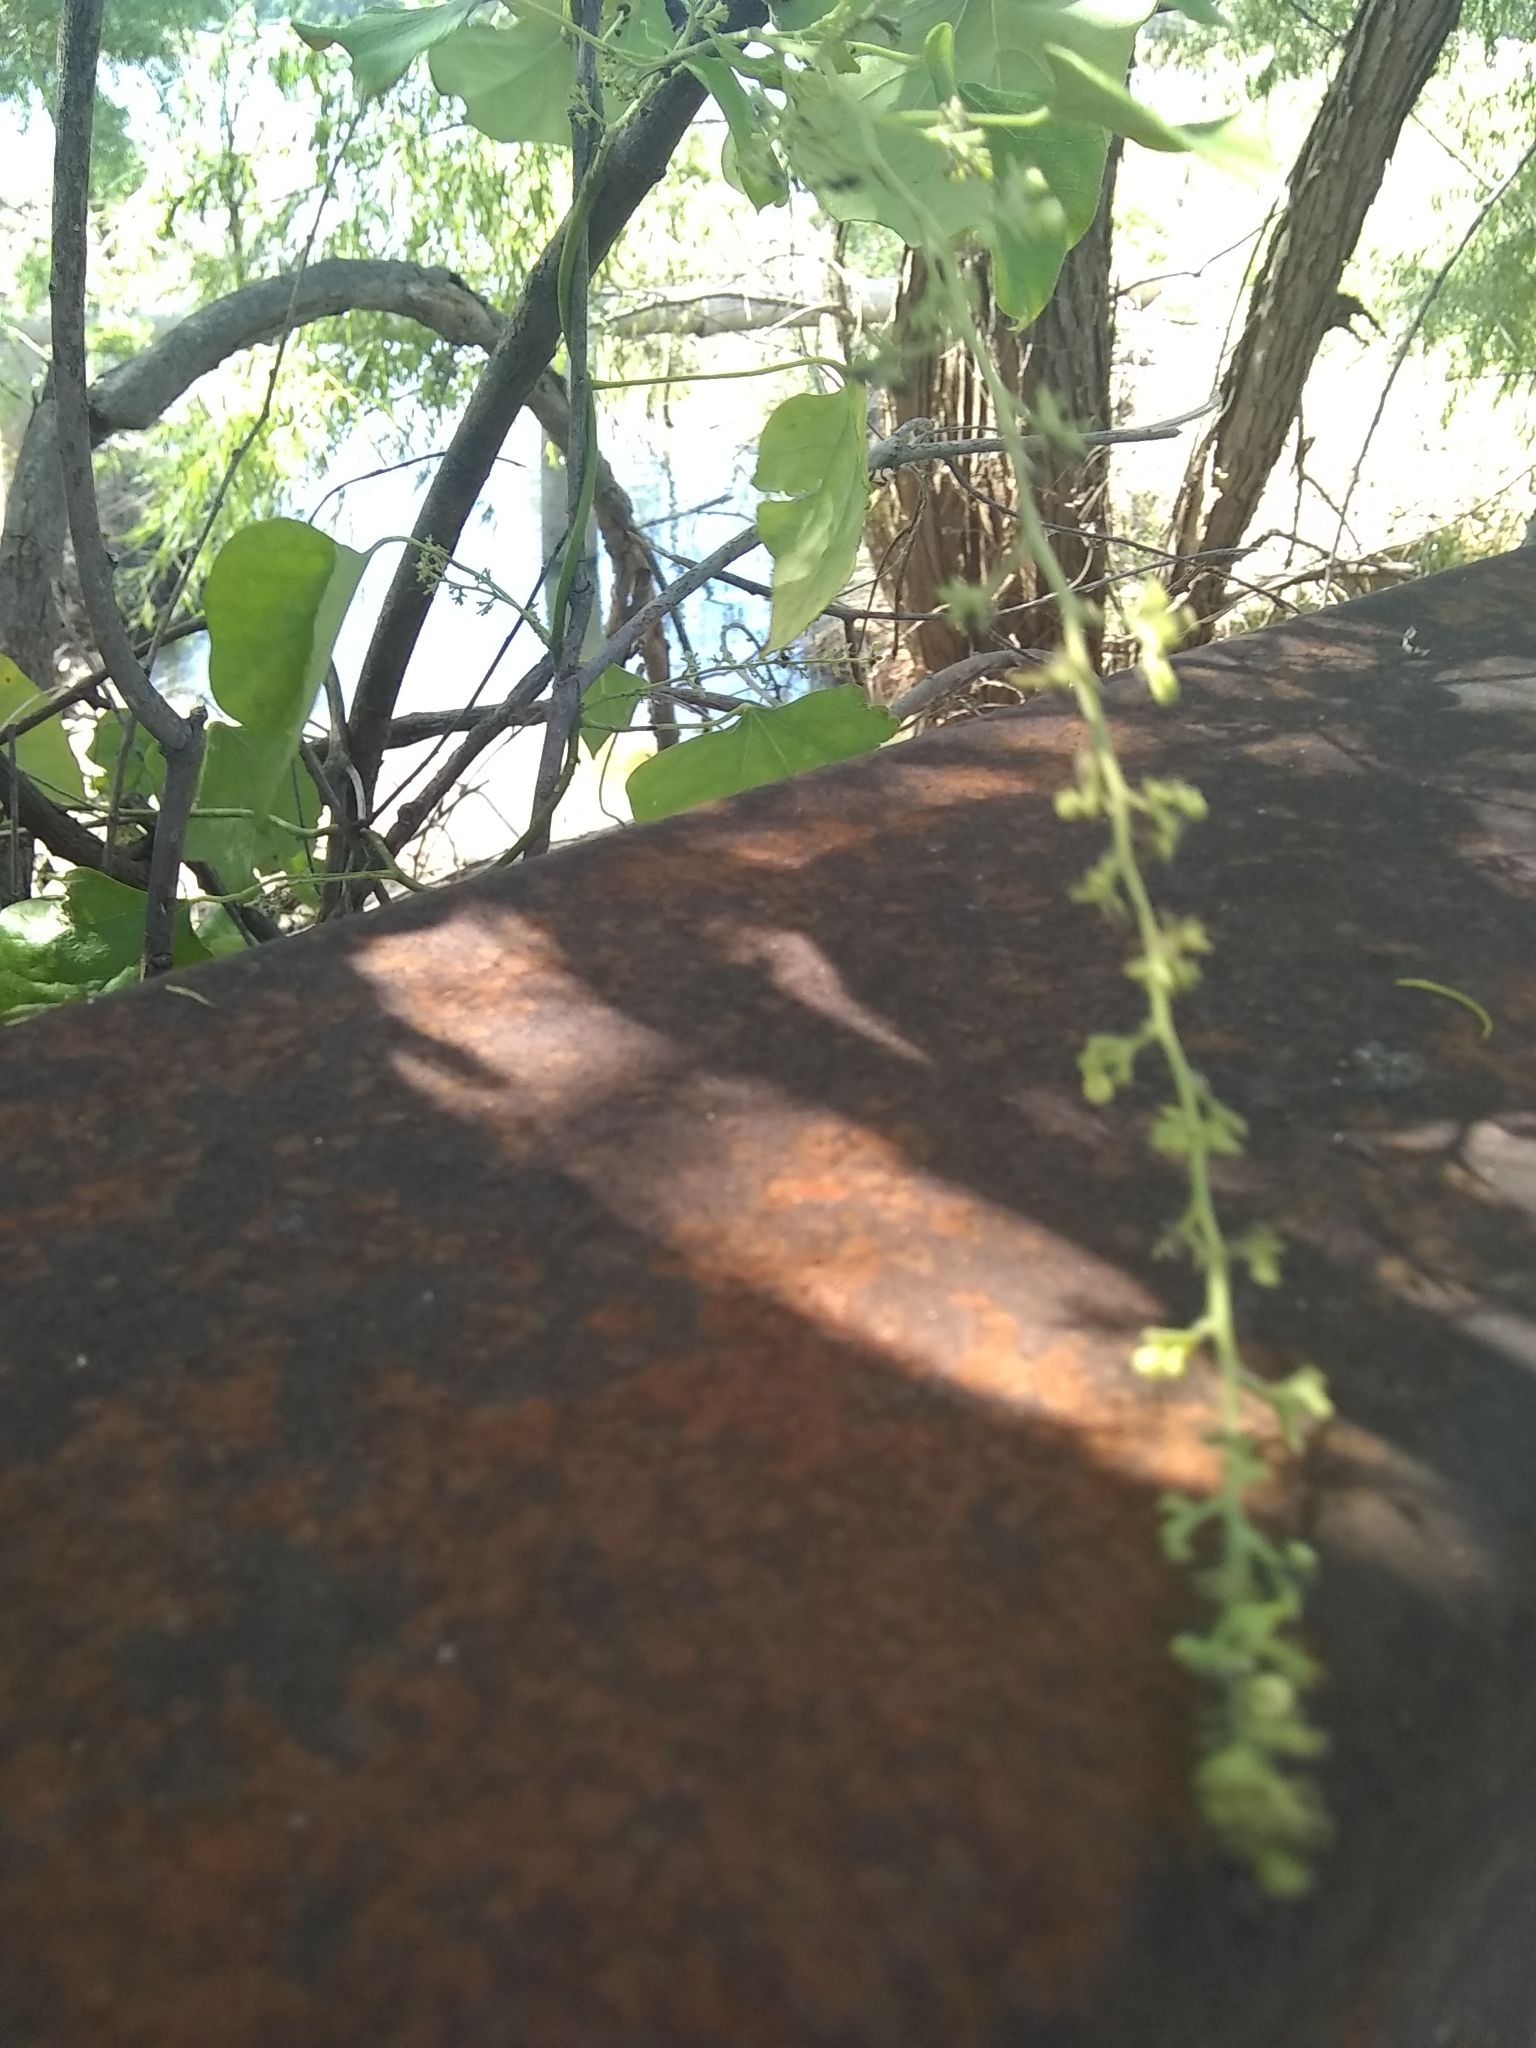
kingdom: Plantae
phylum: Tracheophyta
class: Magnoliopsida
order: Ranunculales
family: Menispermaceae
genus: Cocculus
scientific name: Cocculus carolinus
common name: Carolina moonseed
